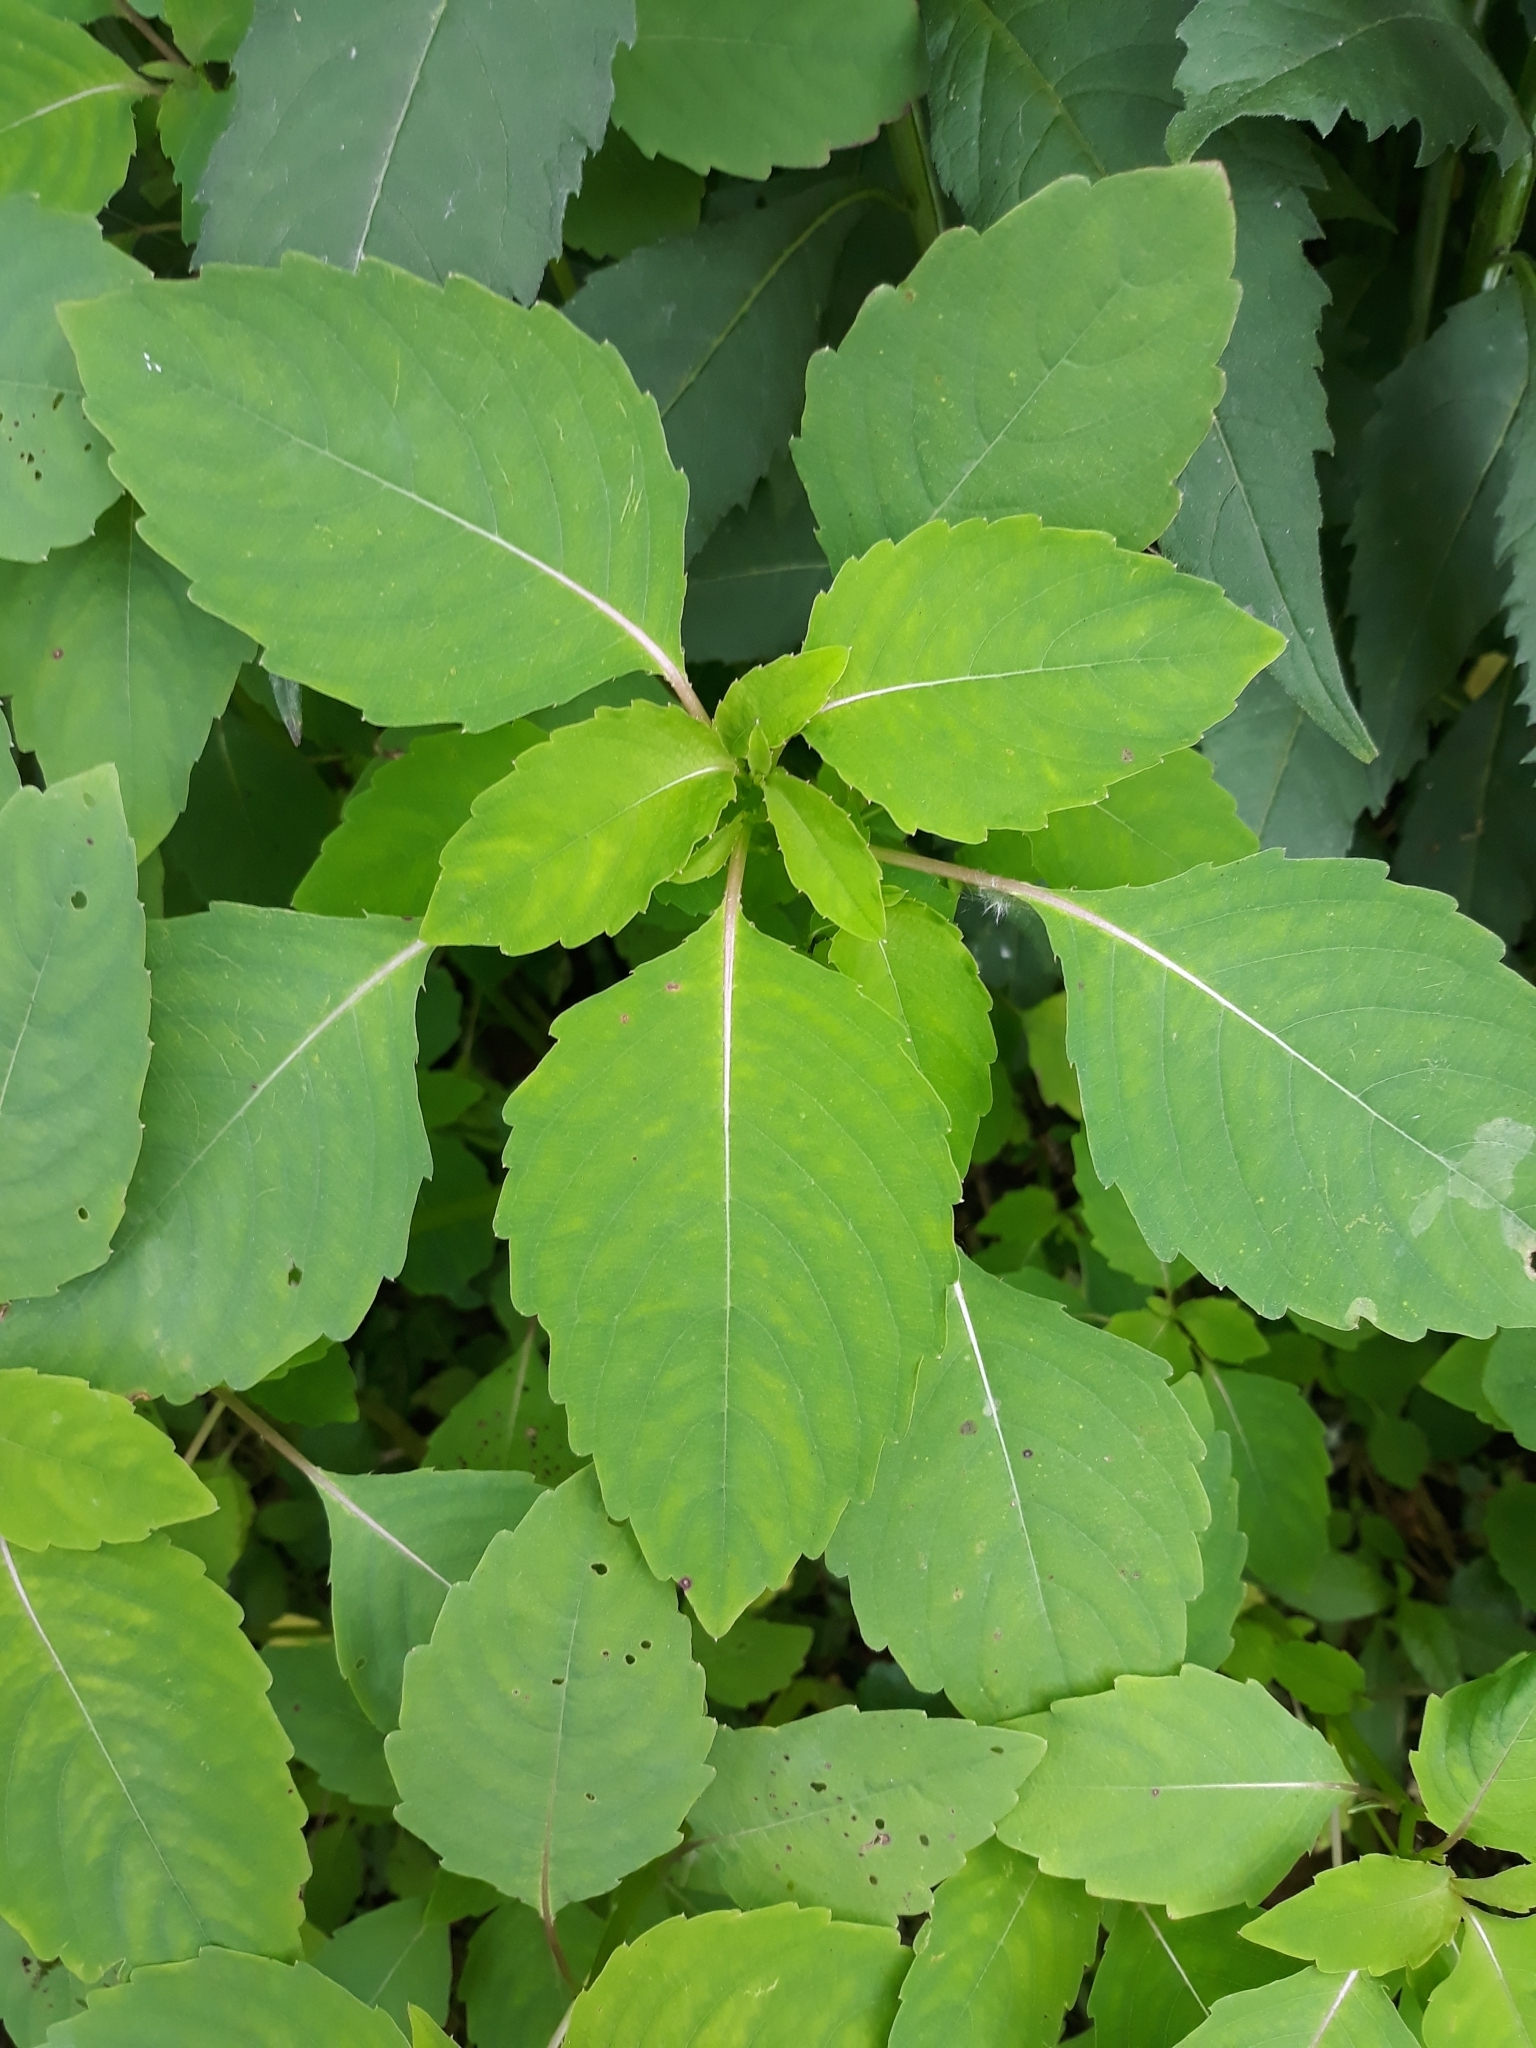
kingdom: Plantae
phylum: Tracheophyta
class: Magnoliopsida
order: Ericales
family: Balsaminaceae
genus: Impatiens
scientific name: Impatiens capensis
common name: Orange balsam
